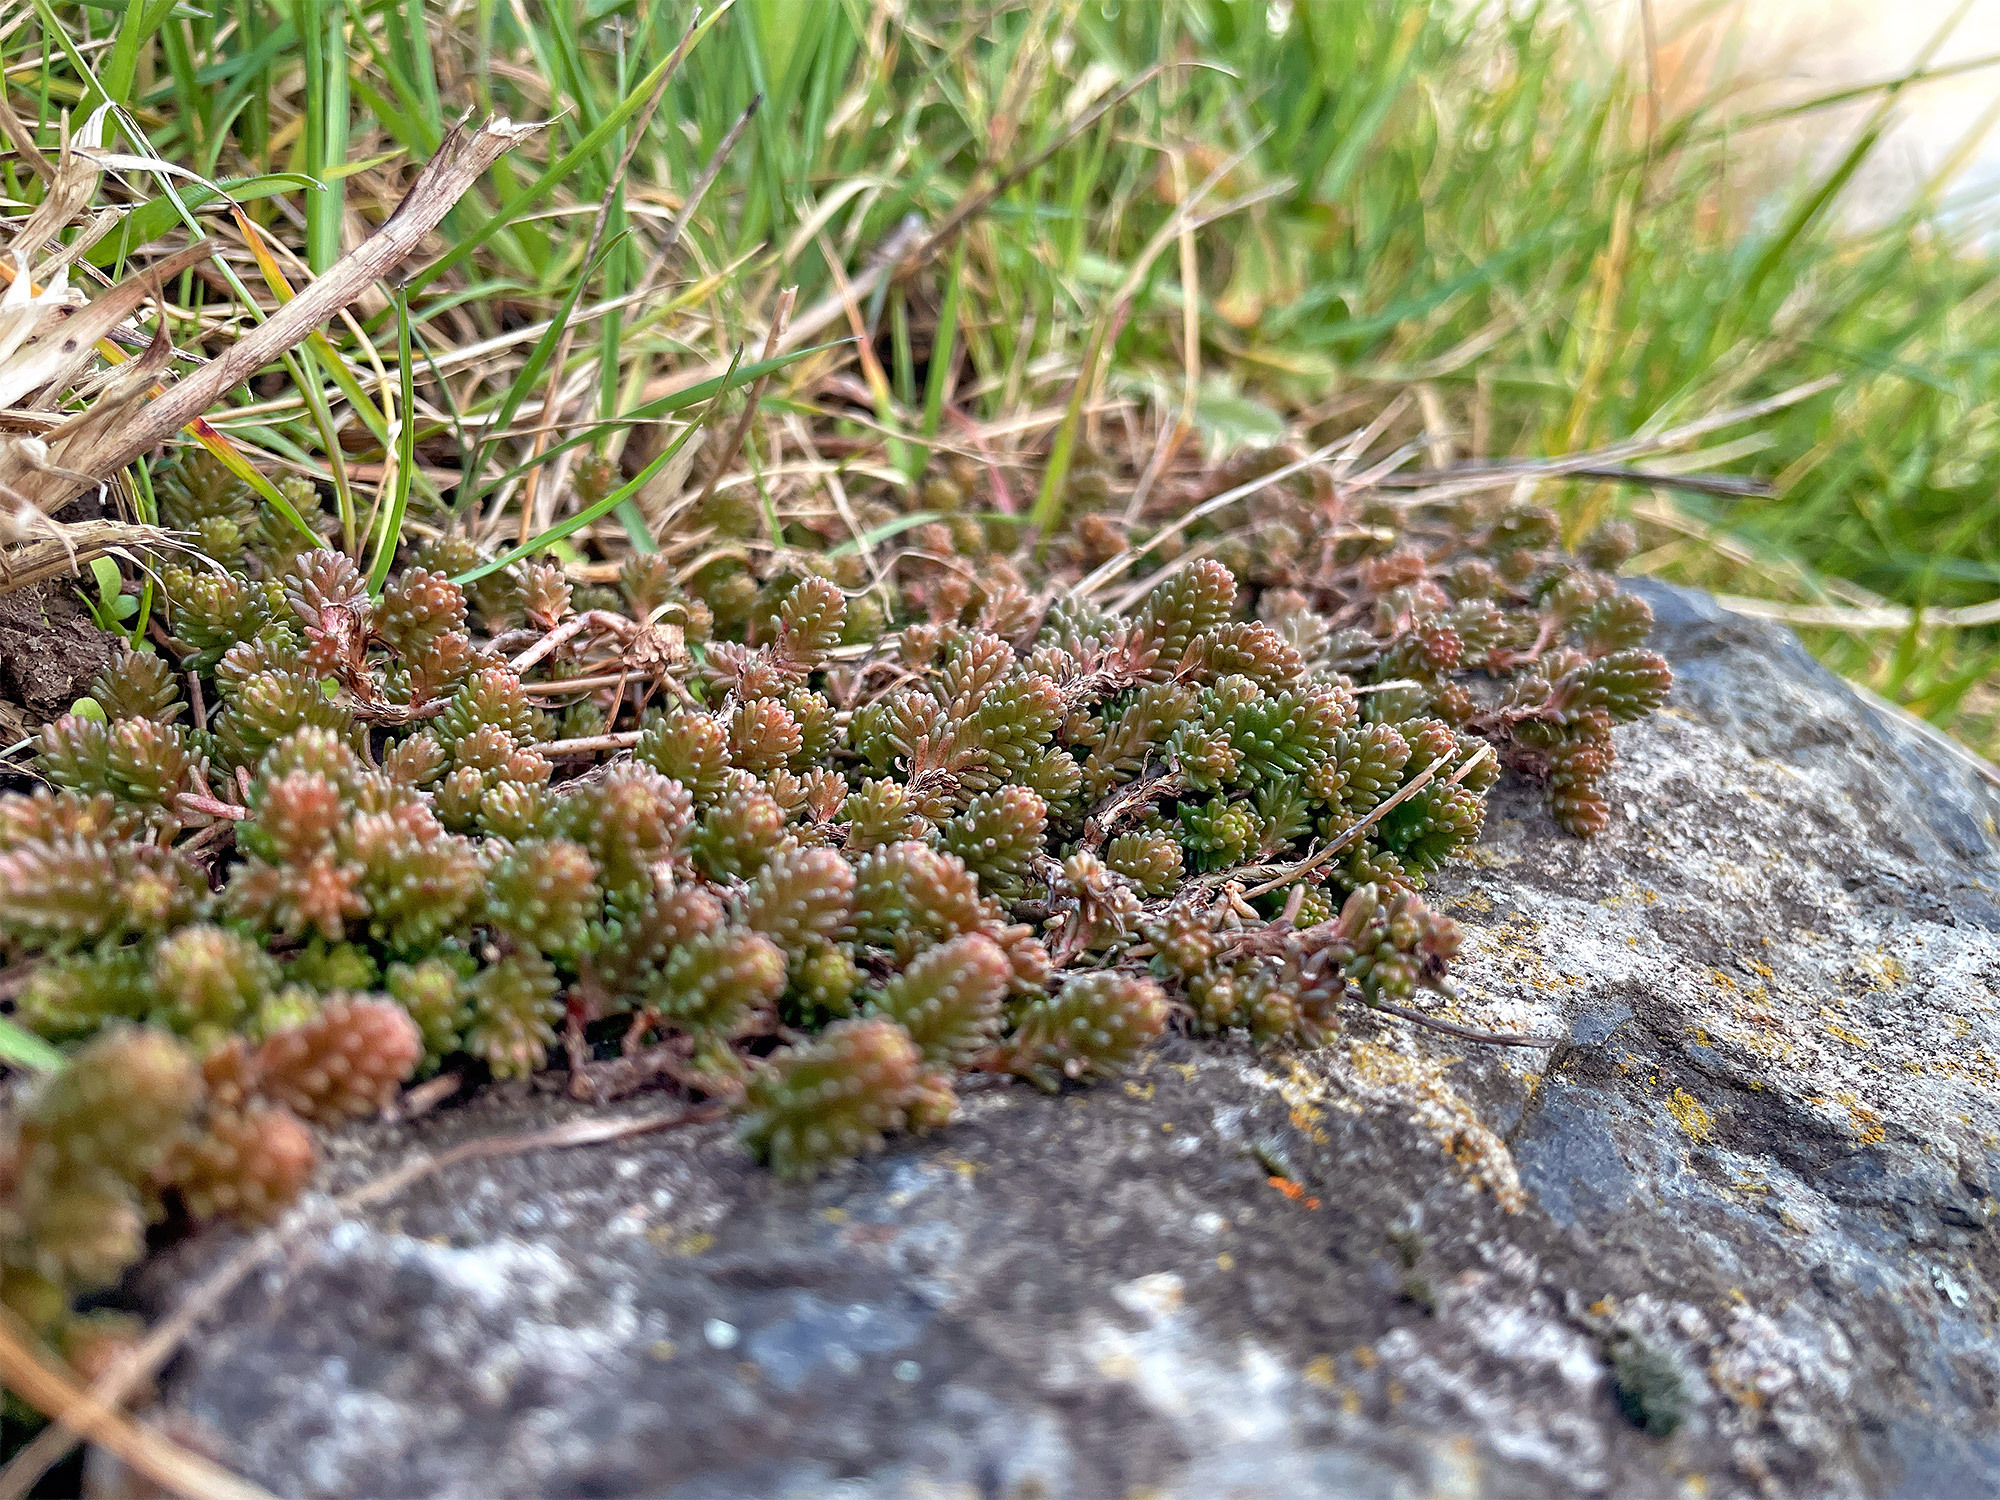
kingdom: Plantae
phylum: Tracheophyta
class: Magnoliopsida
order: Saxifragales
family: Crassulaceae
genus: Sedum
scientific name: Sedum sexangulare
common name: Tasteless stonecrop
